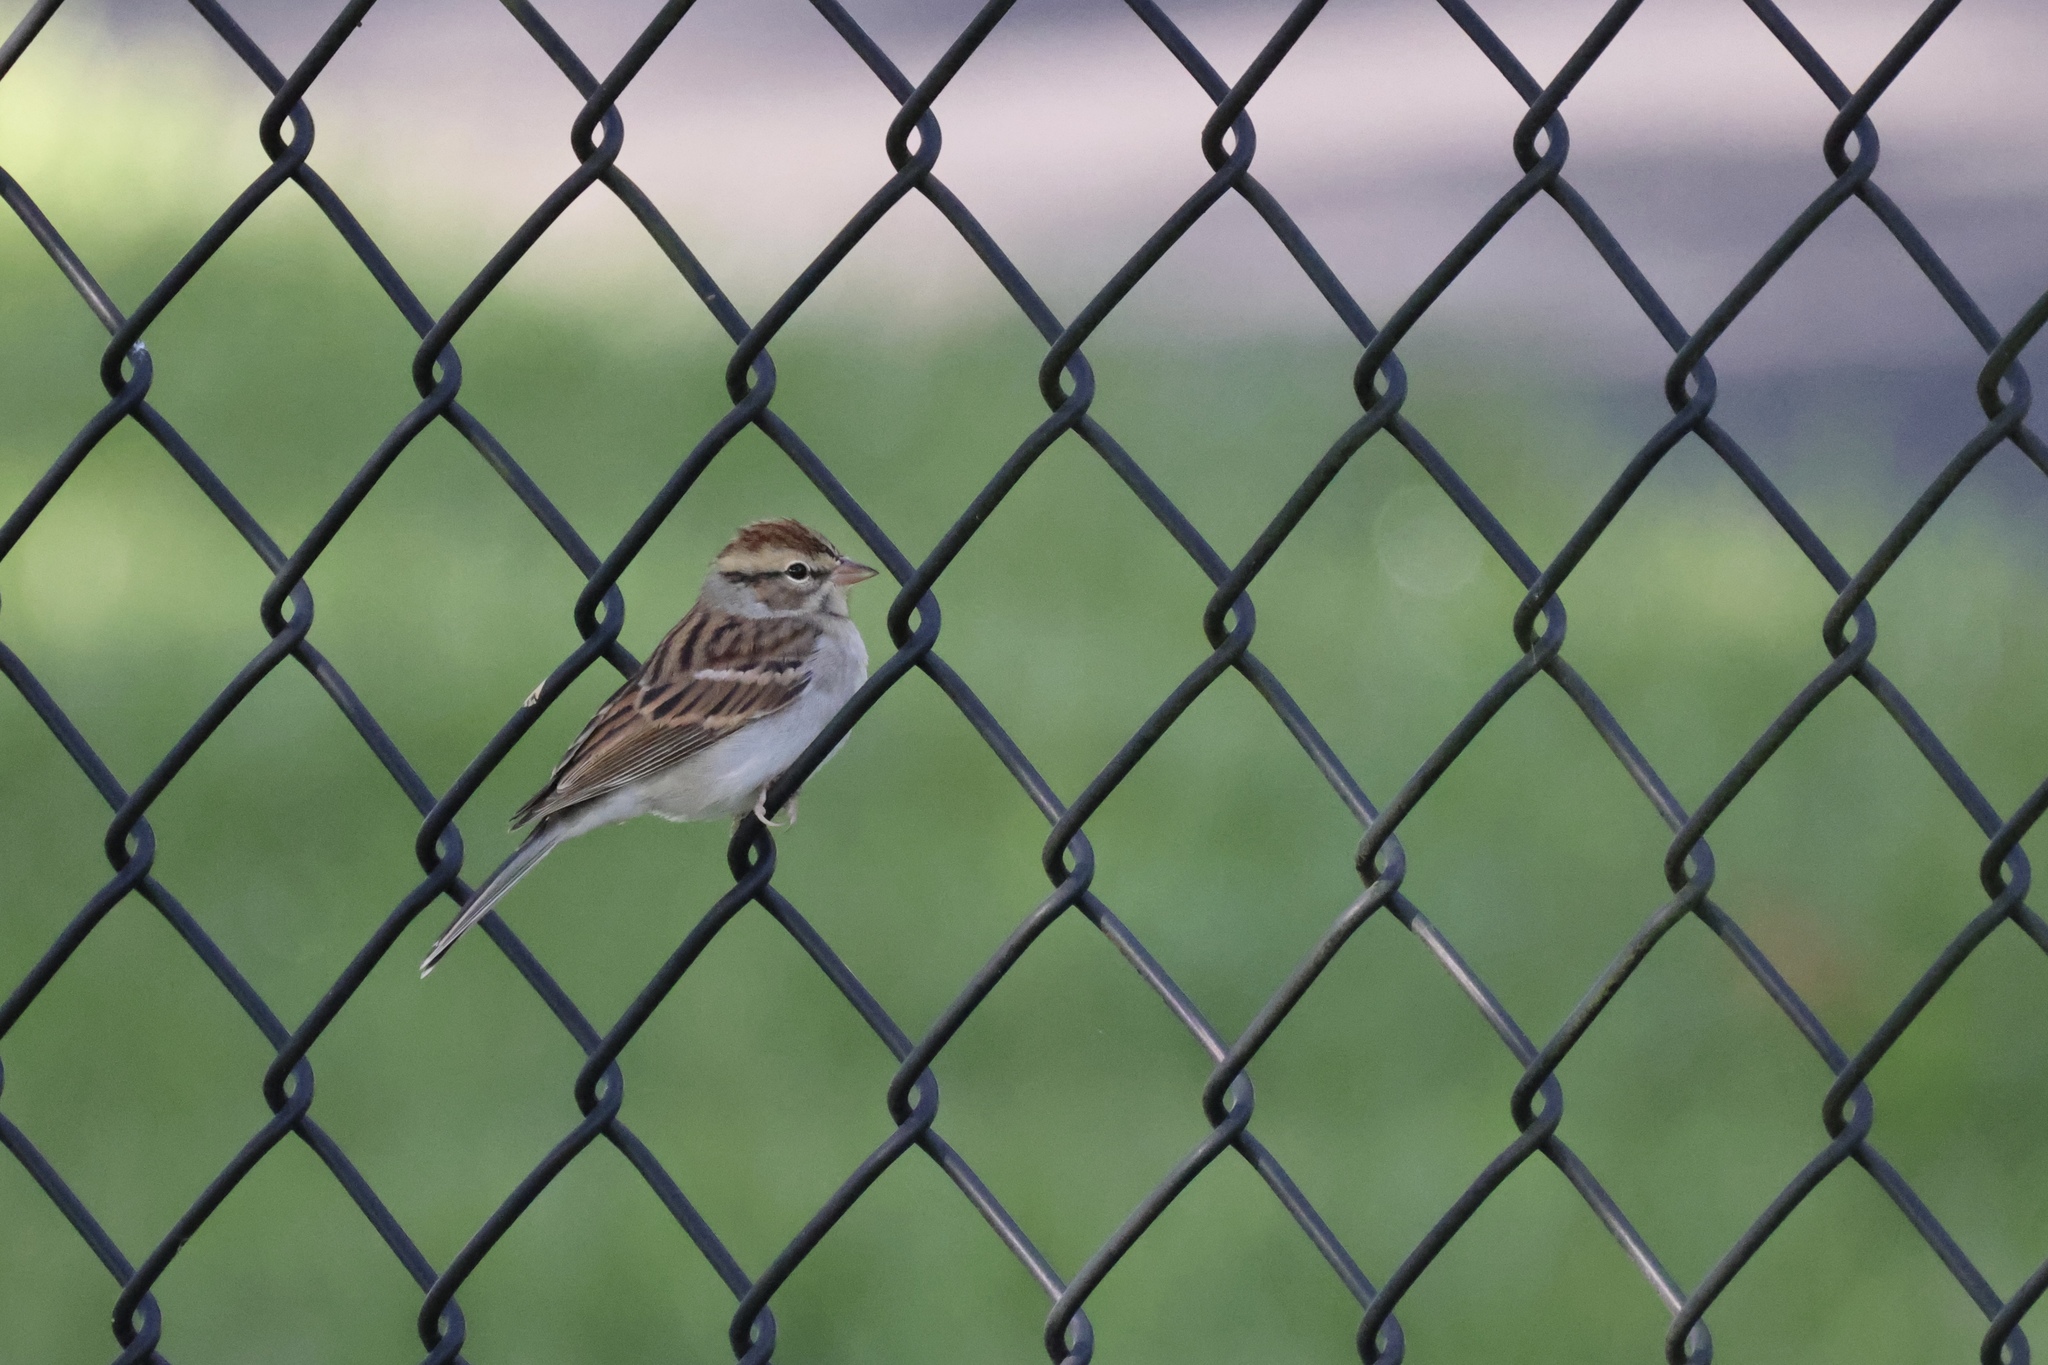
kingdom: Animalia
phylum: Chordata
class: Aves
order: Passeriformes
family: Passerellidae
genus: Spizella
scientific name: Spizella passerina
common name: Chipping sparrow
